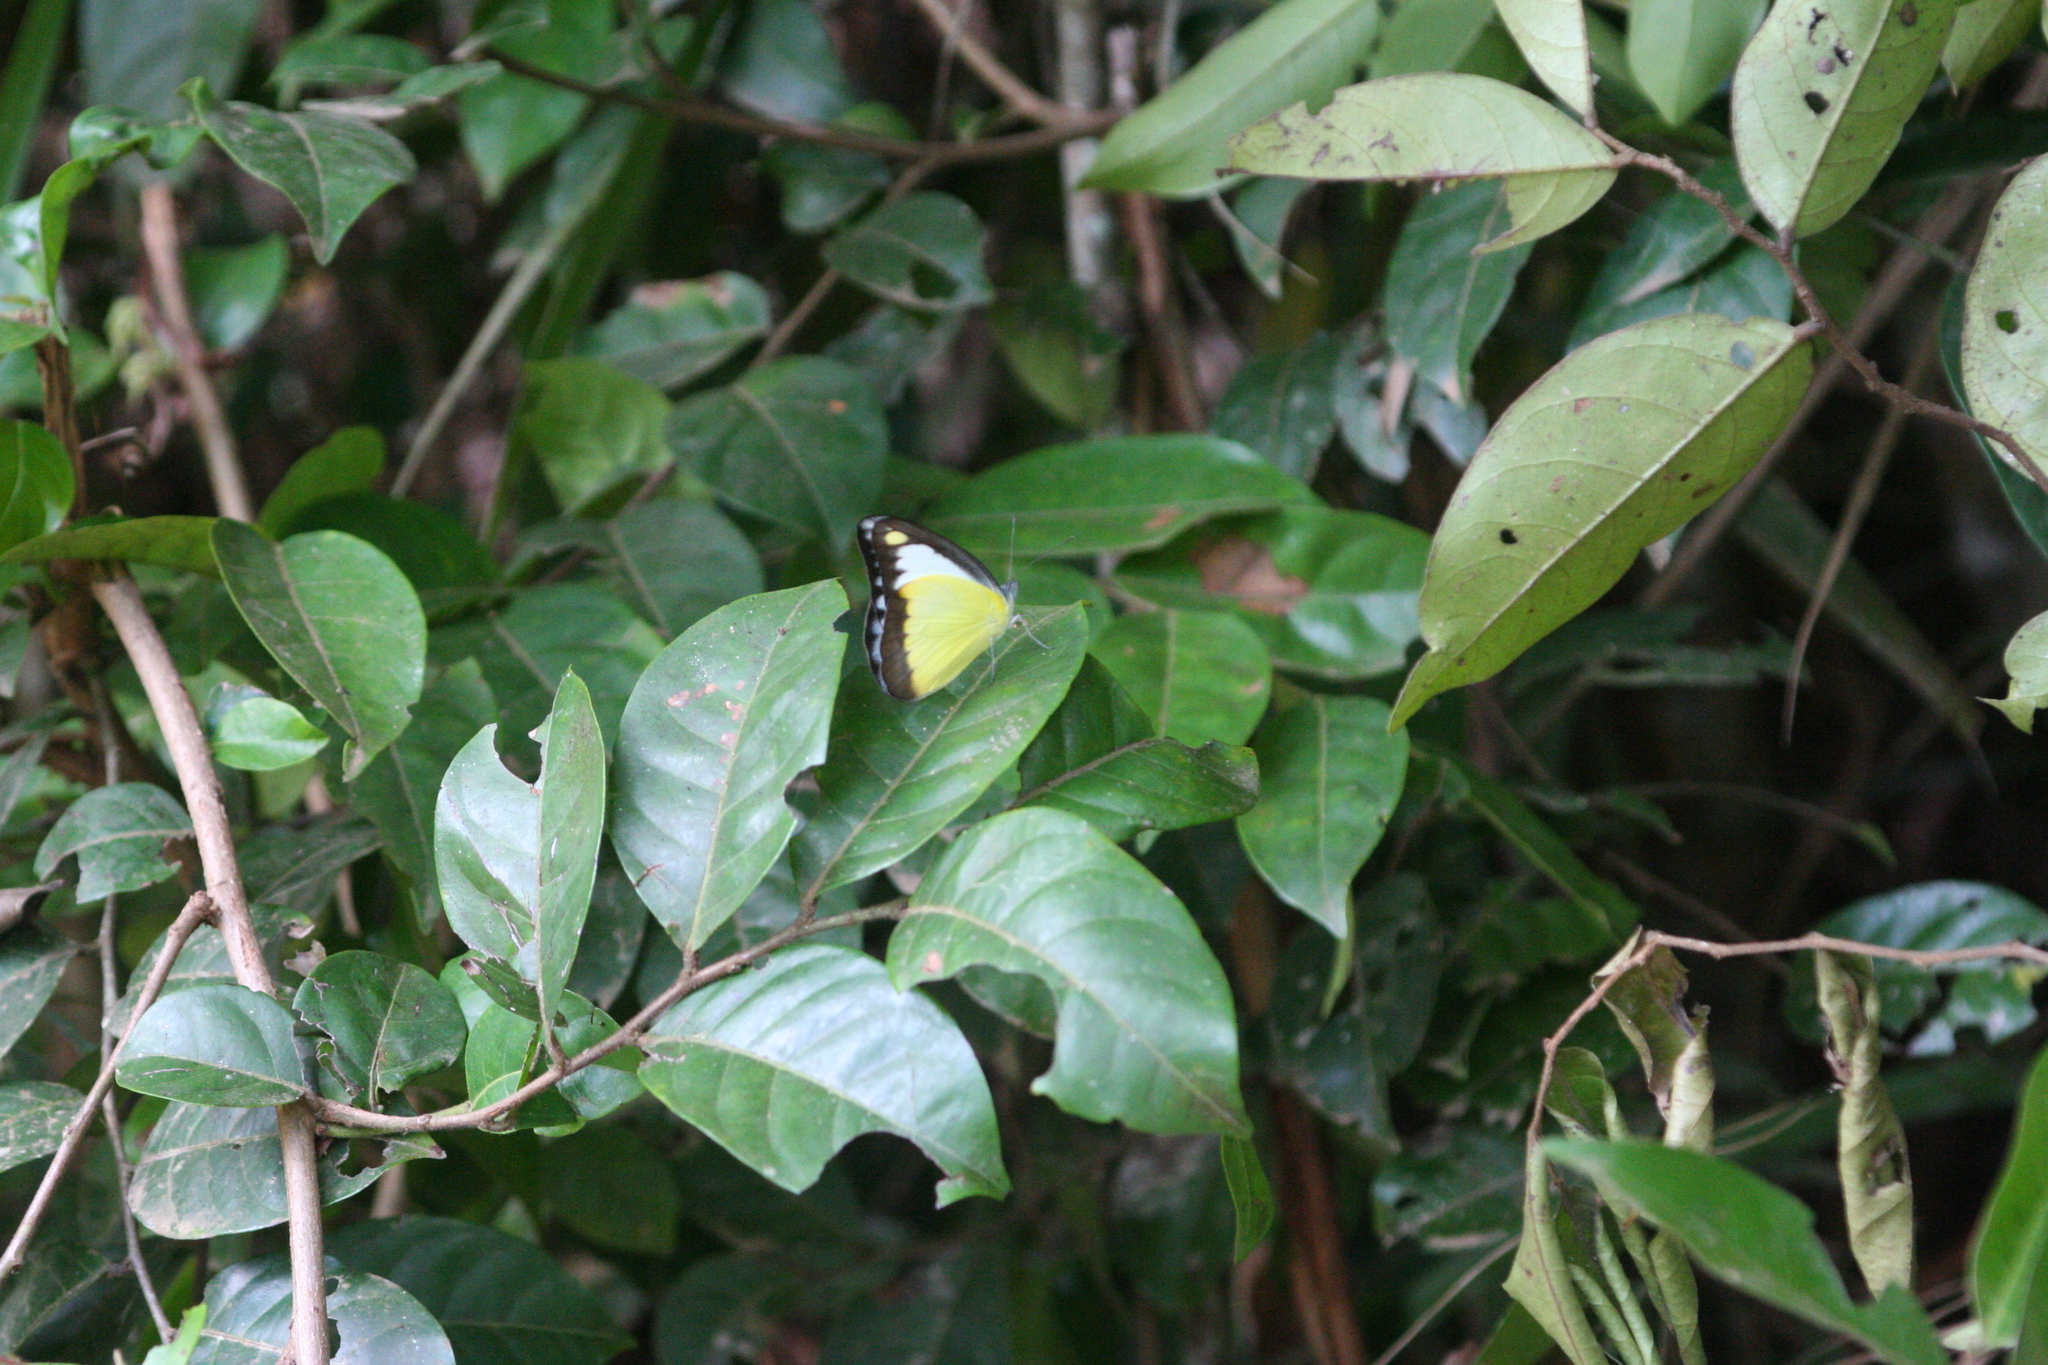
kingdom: Animalia
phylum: Arthropoda
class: Insecta
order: Lepidoptera
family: Pieridae
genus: Appias
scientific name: Appias lyncida
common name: Chocolate albatross
